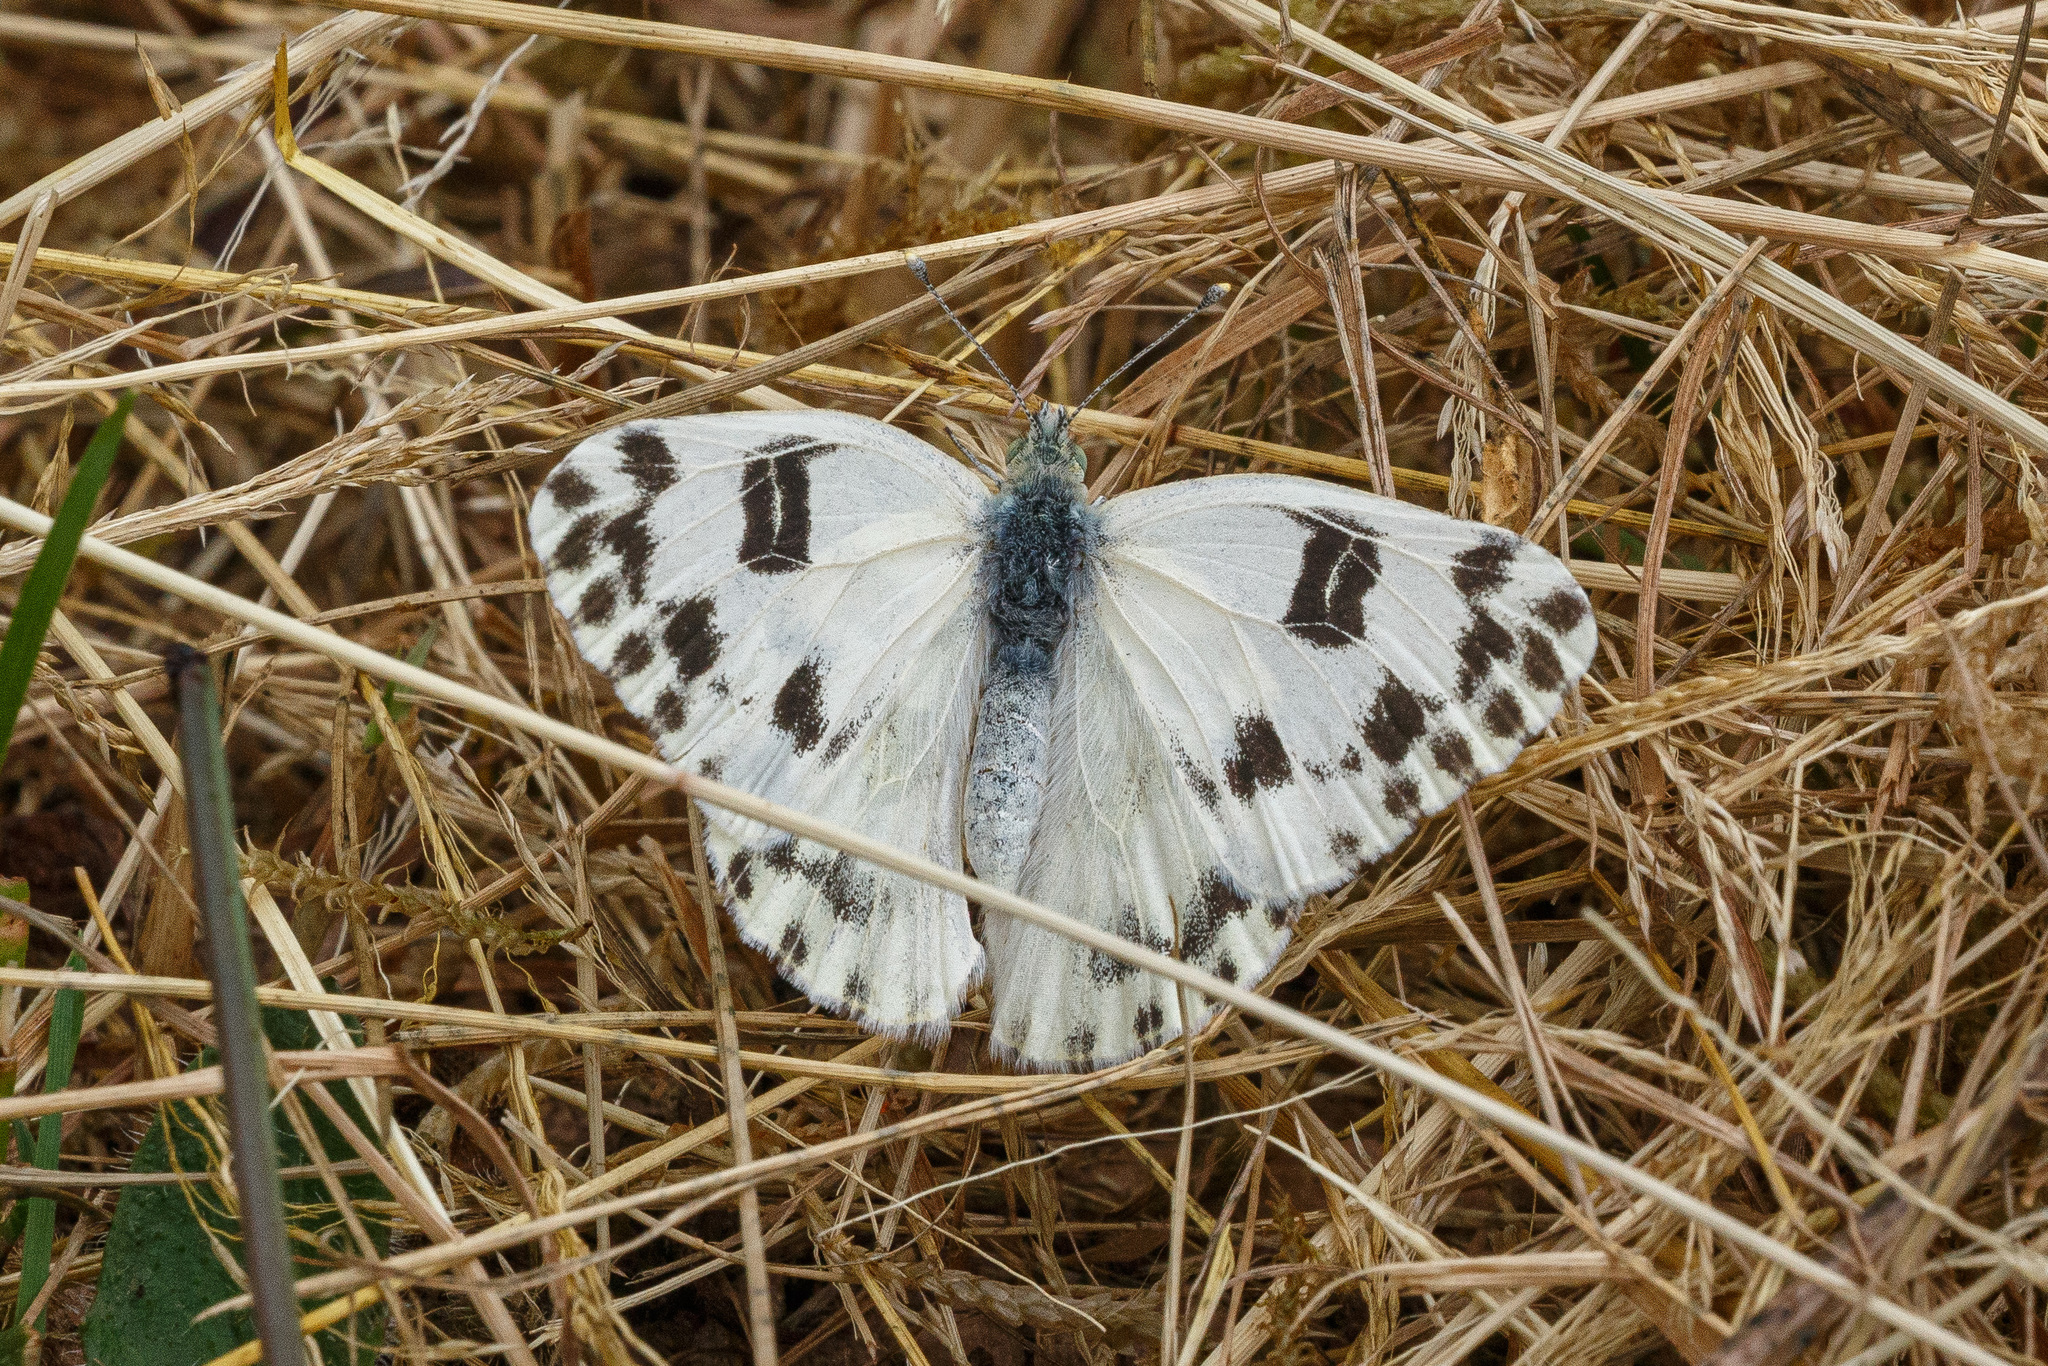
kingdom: Animalia
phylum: Arthropoda
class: Insecta
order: Lepidoptera
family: Pieridae
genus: Pontia
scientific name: Pontia beckerii
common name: Becker's white
